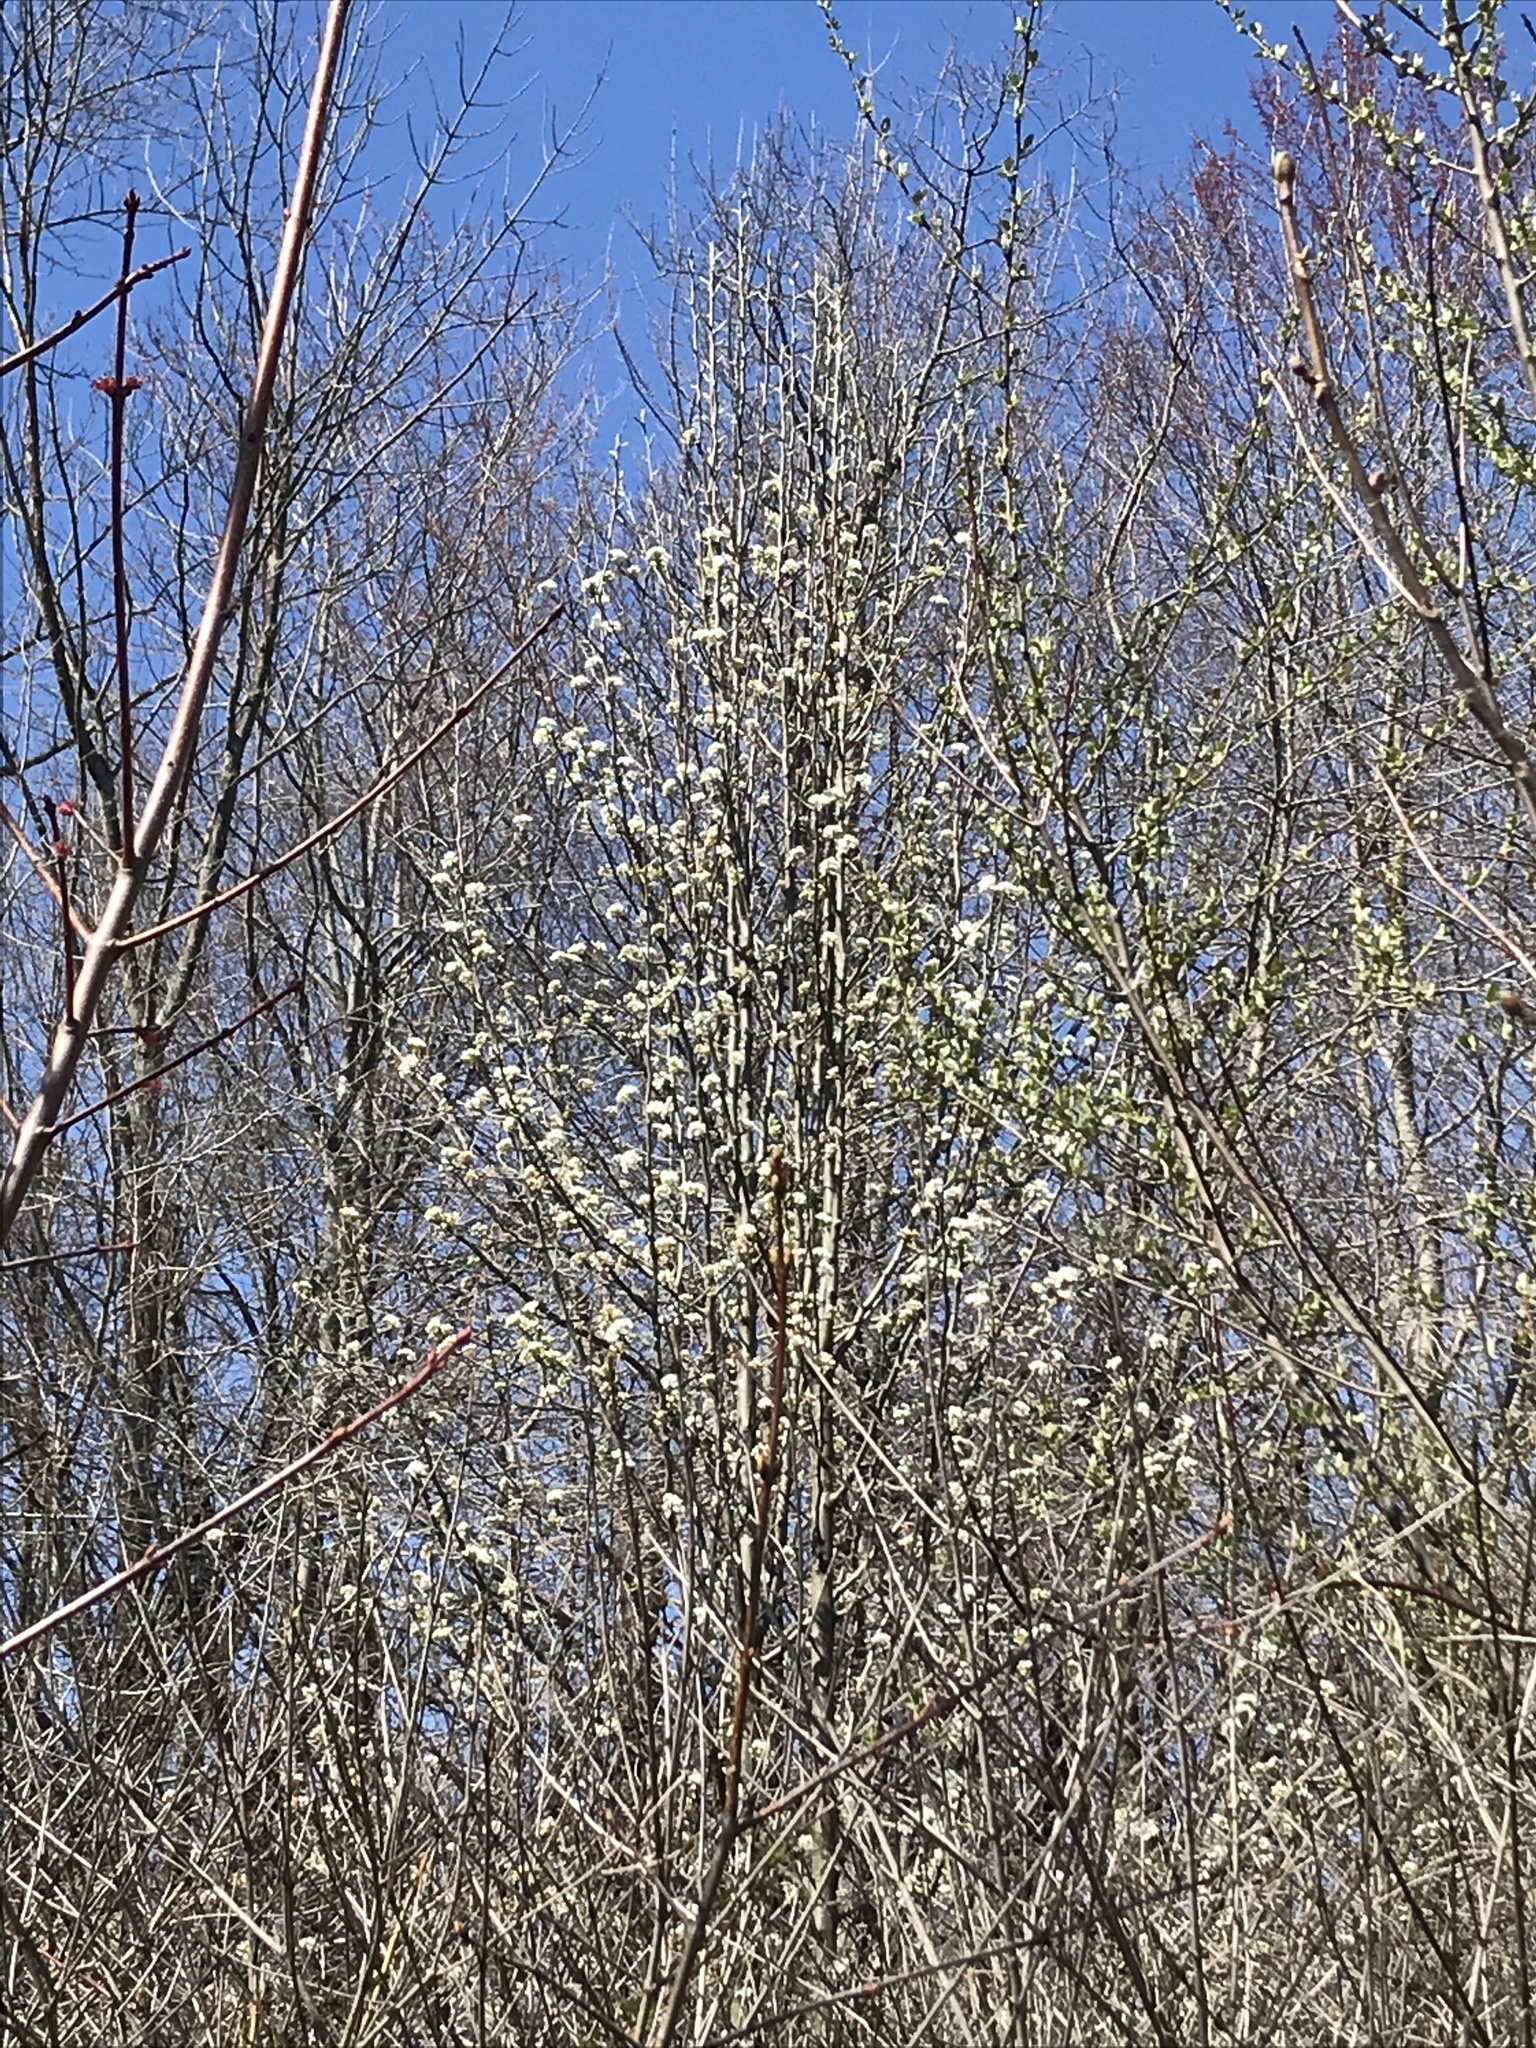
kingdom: Plantae
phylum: Tracheophyta
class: Magnoliopsida
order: Rosales
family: Rosaceae
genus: Pyrus
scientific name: Pyrus calleryana
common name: Callery pear
